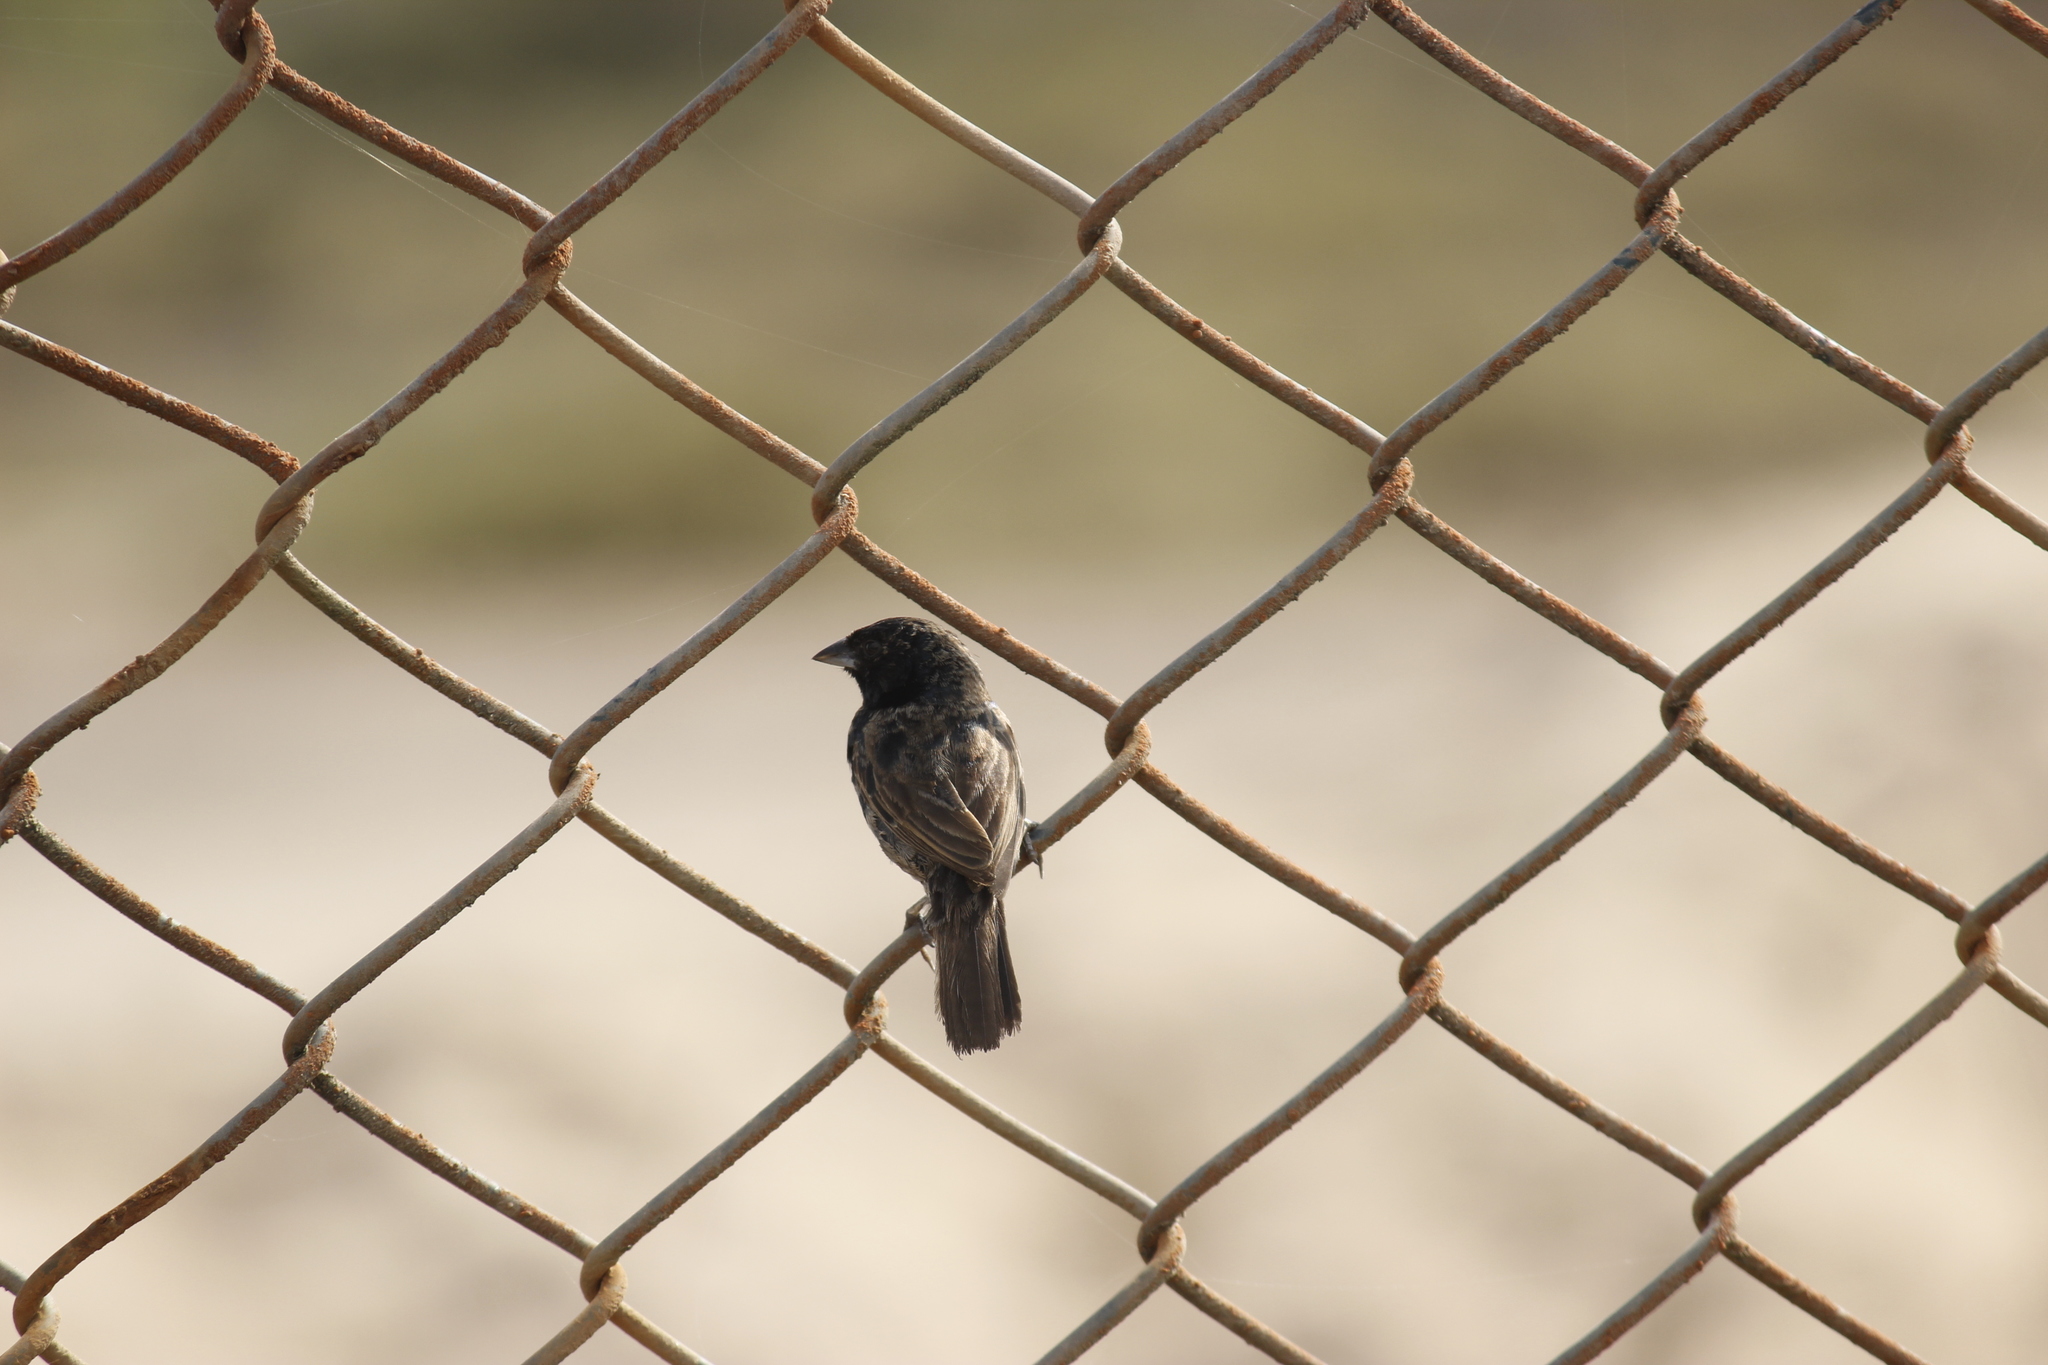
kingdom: Animalia
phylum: Chordata
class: Aves
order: Passeriformes
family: Thraupidae
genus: Volatinia
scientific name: Volatinia jacarina
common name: Blue-black grassquit
